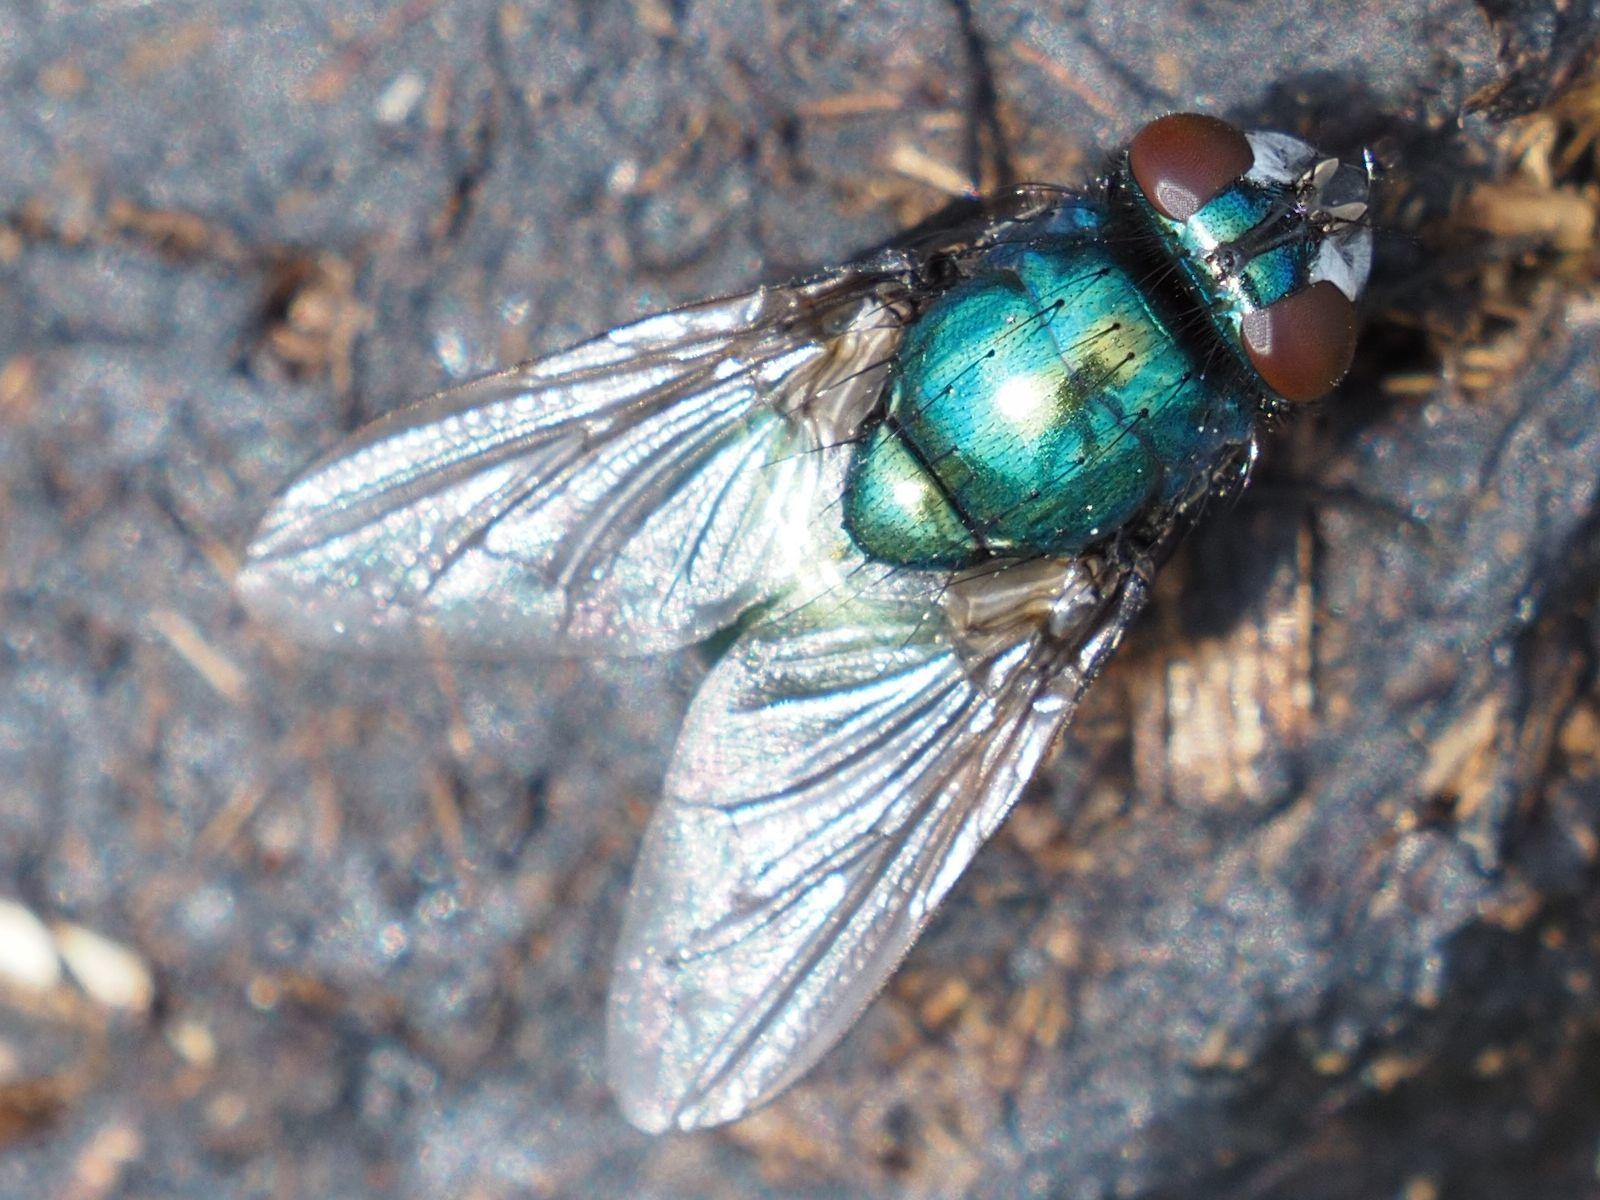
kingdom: Animalia
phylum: Arthropoda
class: Insecta
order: Diptera
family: Muscidae
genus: Neomyia
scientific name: Neomyia cornicina
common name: House fly
